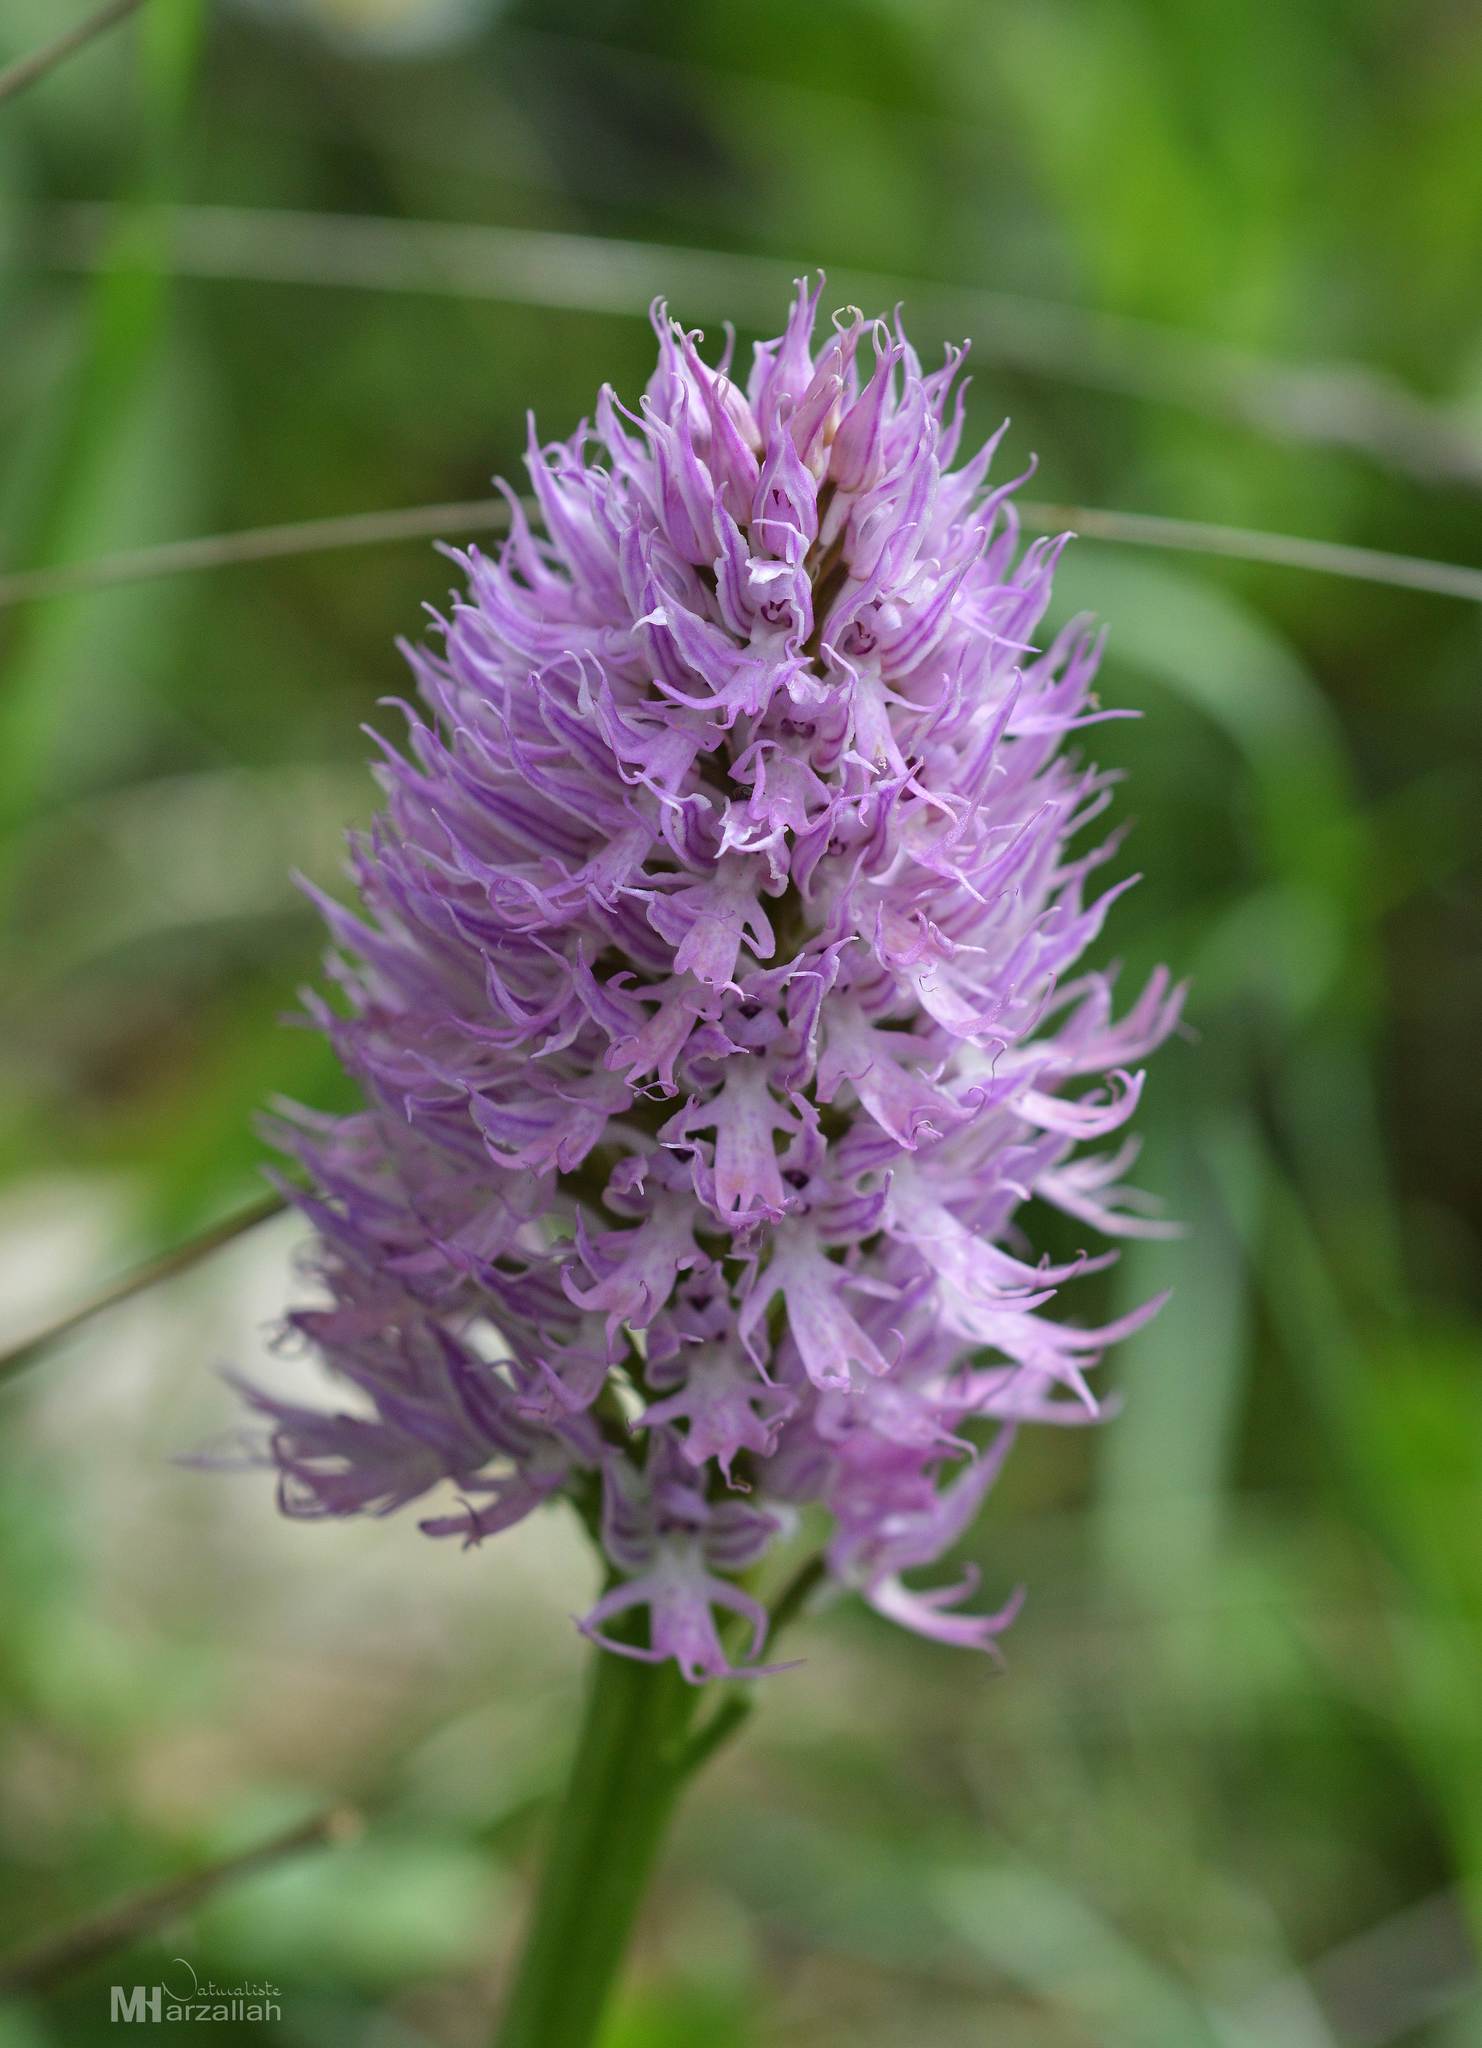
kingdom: Plantae
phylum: Tracheophyta
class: Liliopsida
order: Asparagales
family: Orchidaceae
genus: Orchis
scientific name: Orchis italica
